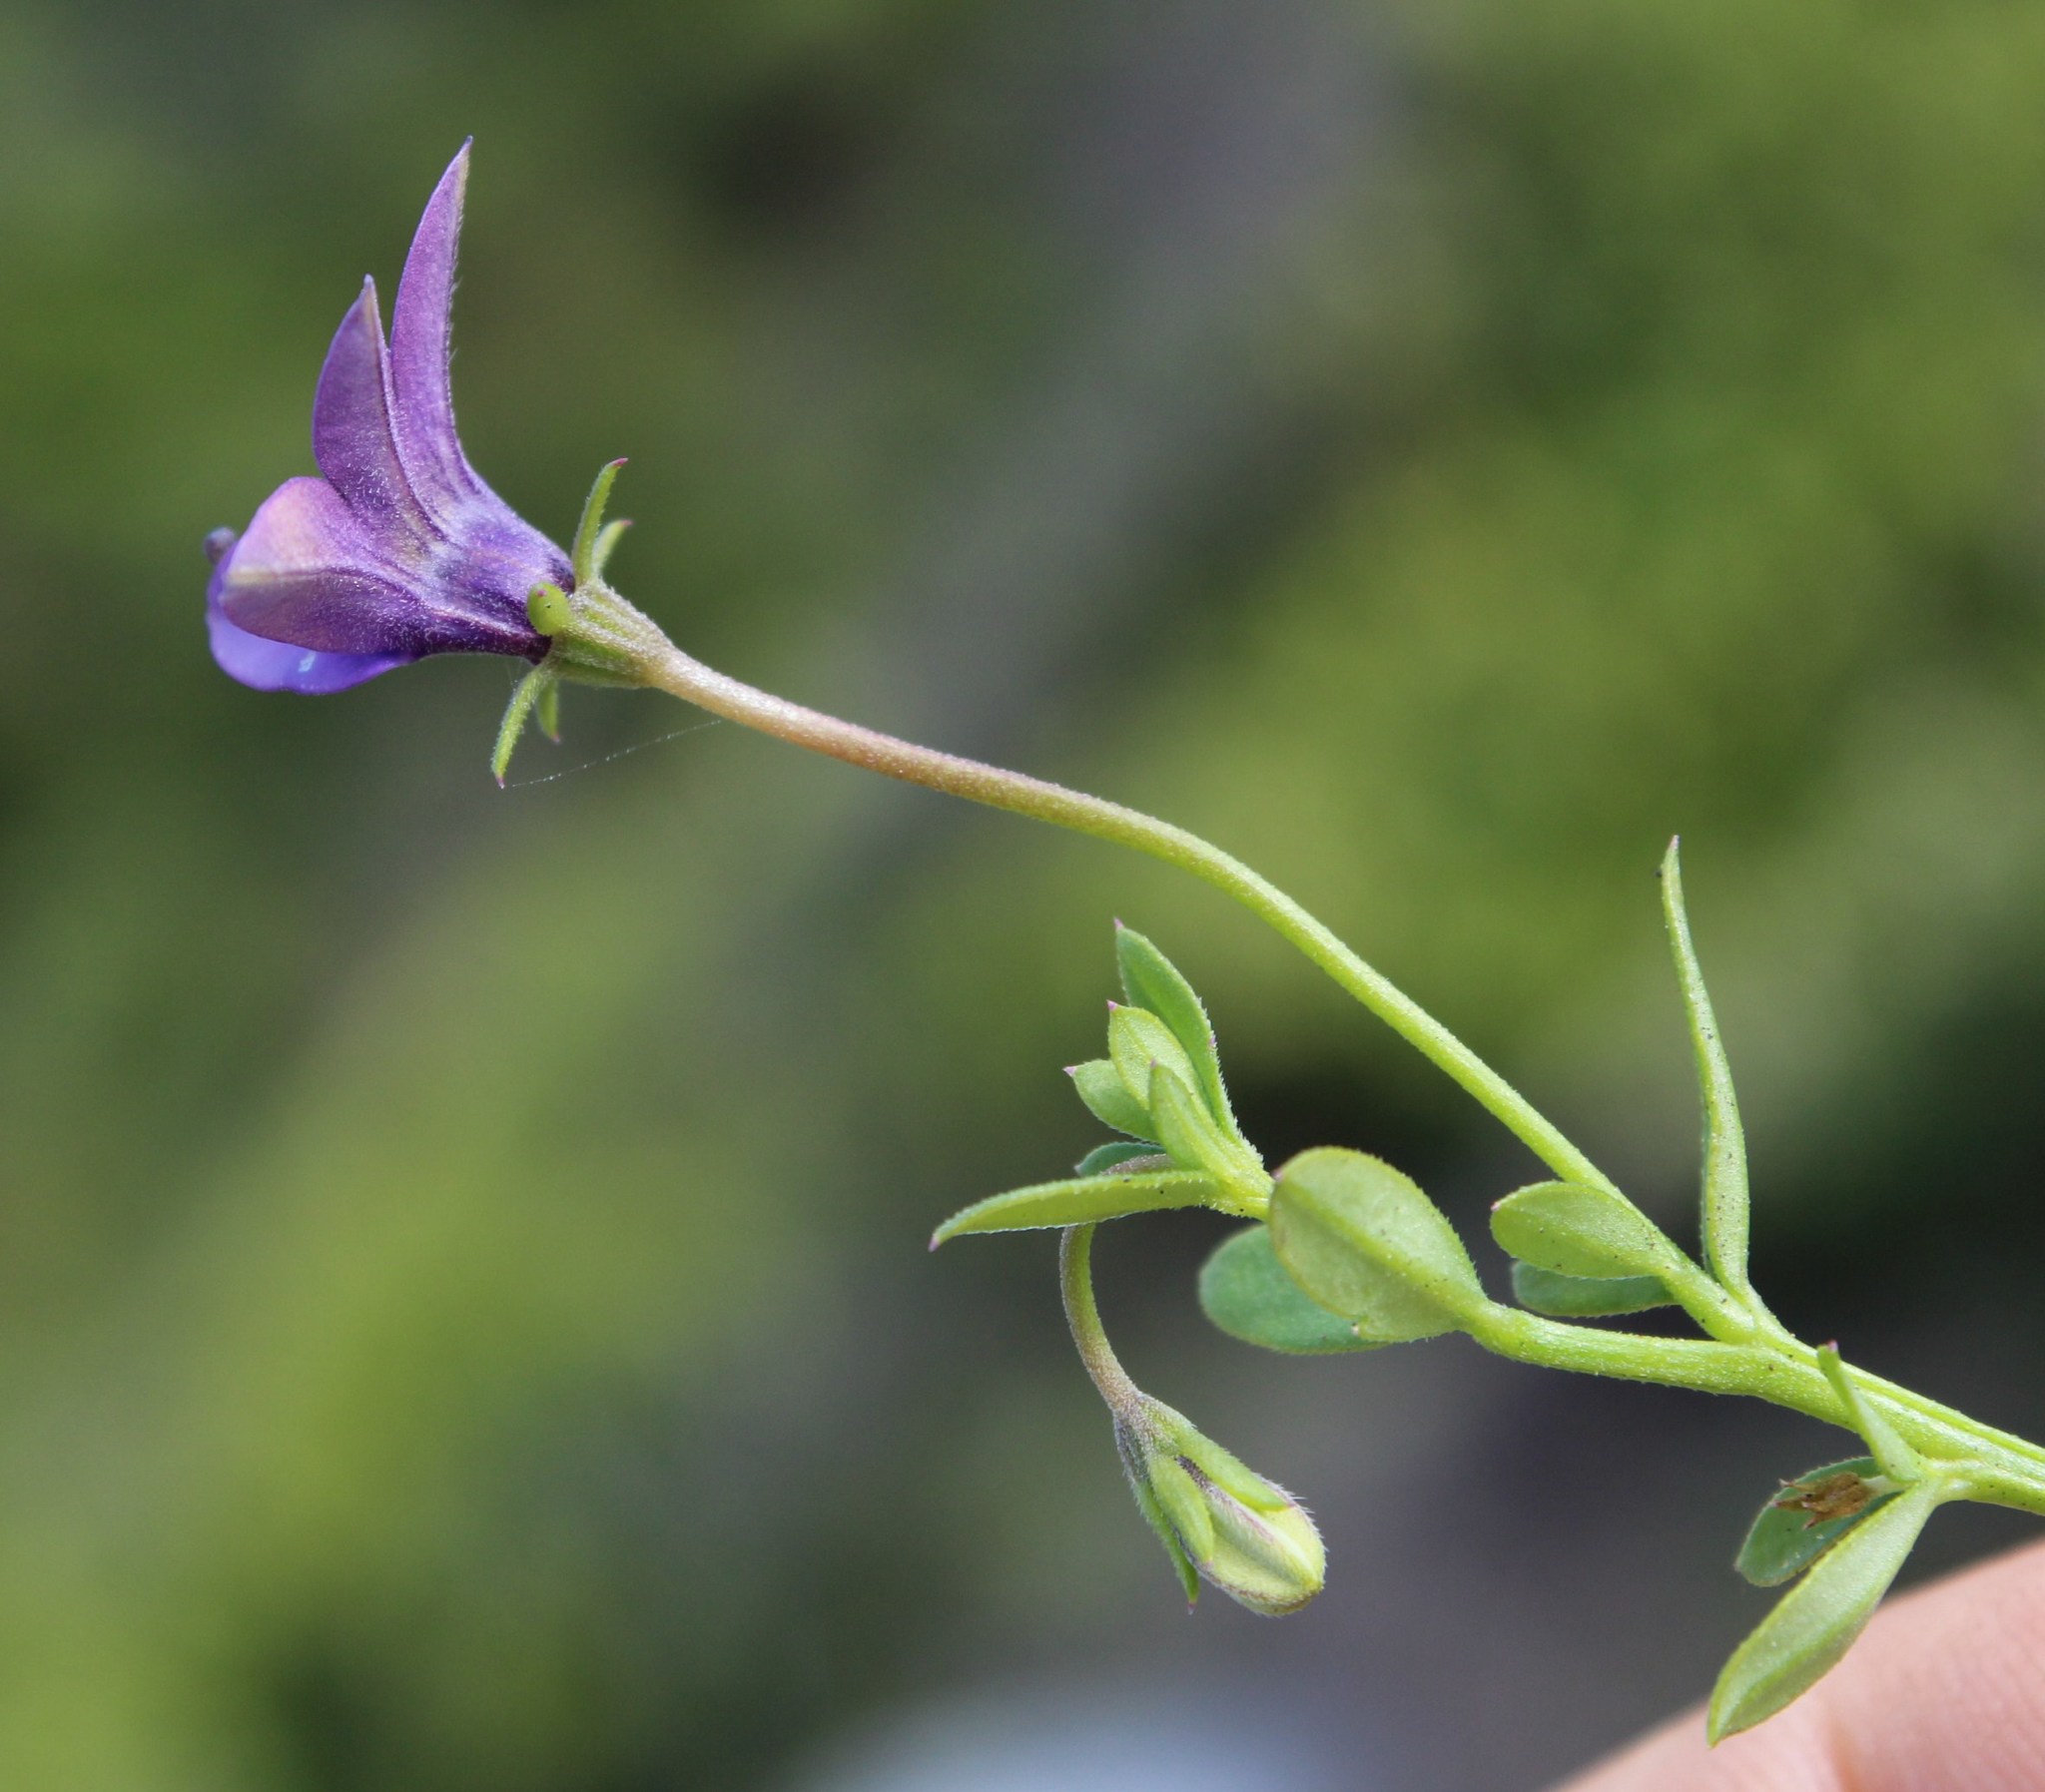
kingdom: Plantae
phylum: Tracheophyta
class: Magnoliopsida
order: Asterales
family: Campanulaceae
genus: Monopsis
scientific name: Monopsis unidentata
